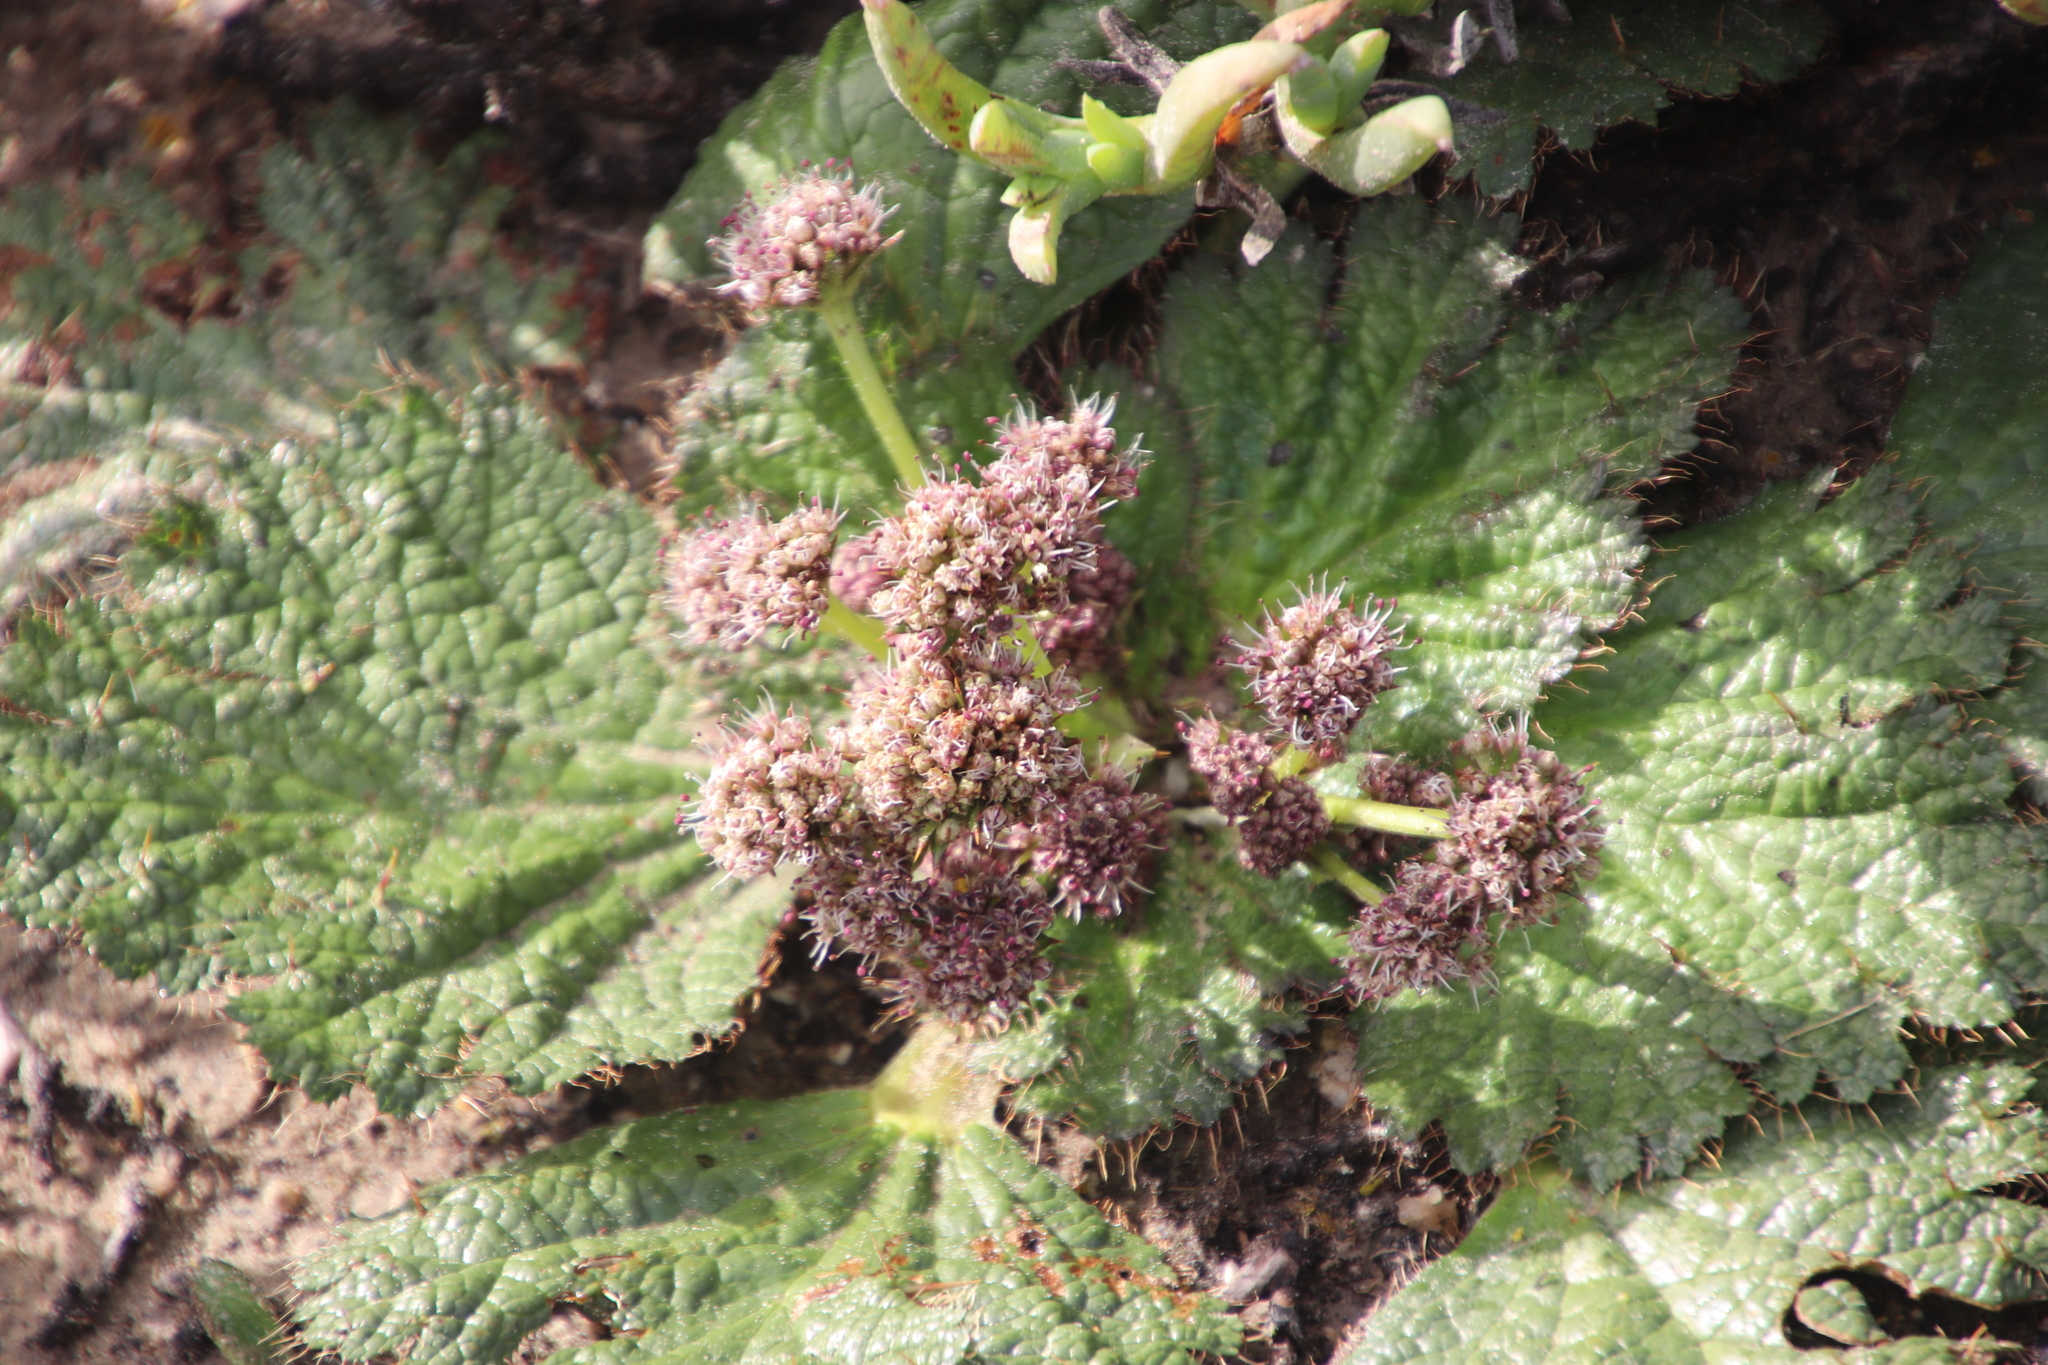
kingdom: Plantae
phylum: Tracheophyta
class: Magnoliopsida
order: Apiales
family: Apiaceae
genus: Arctopus
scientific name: Arctopus echinatus
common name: Platdoring
